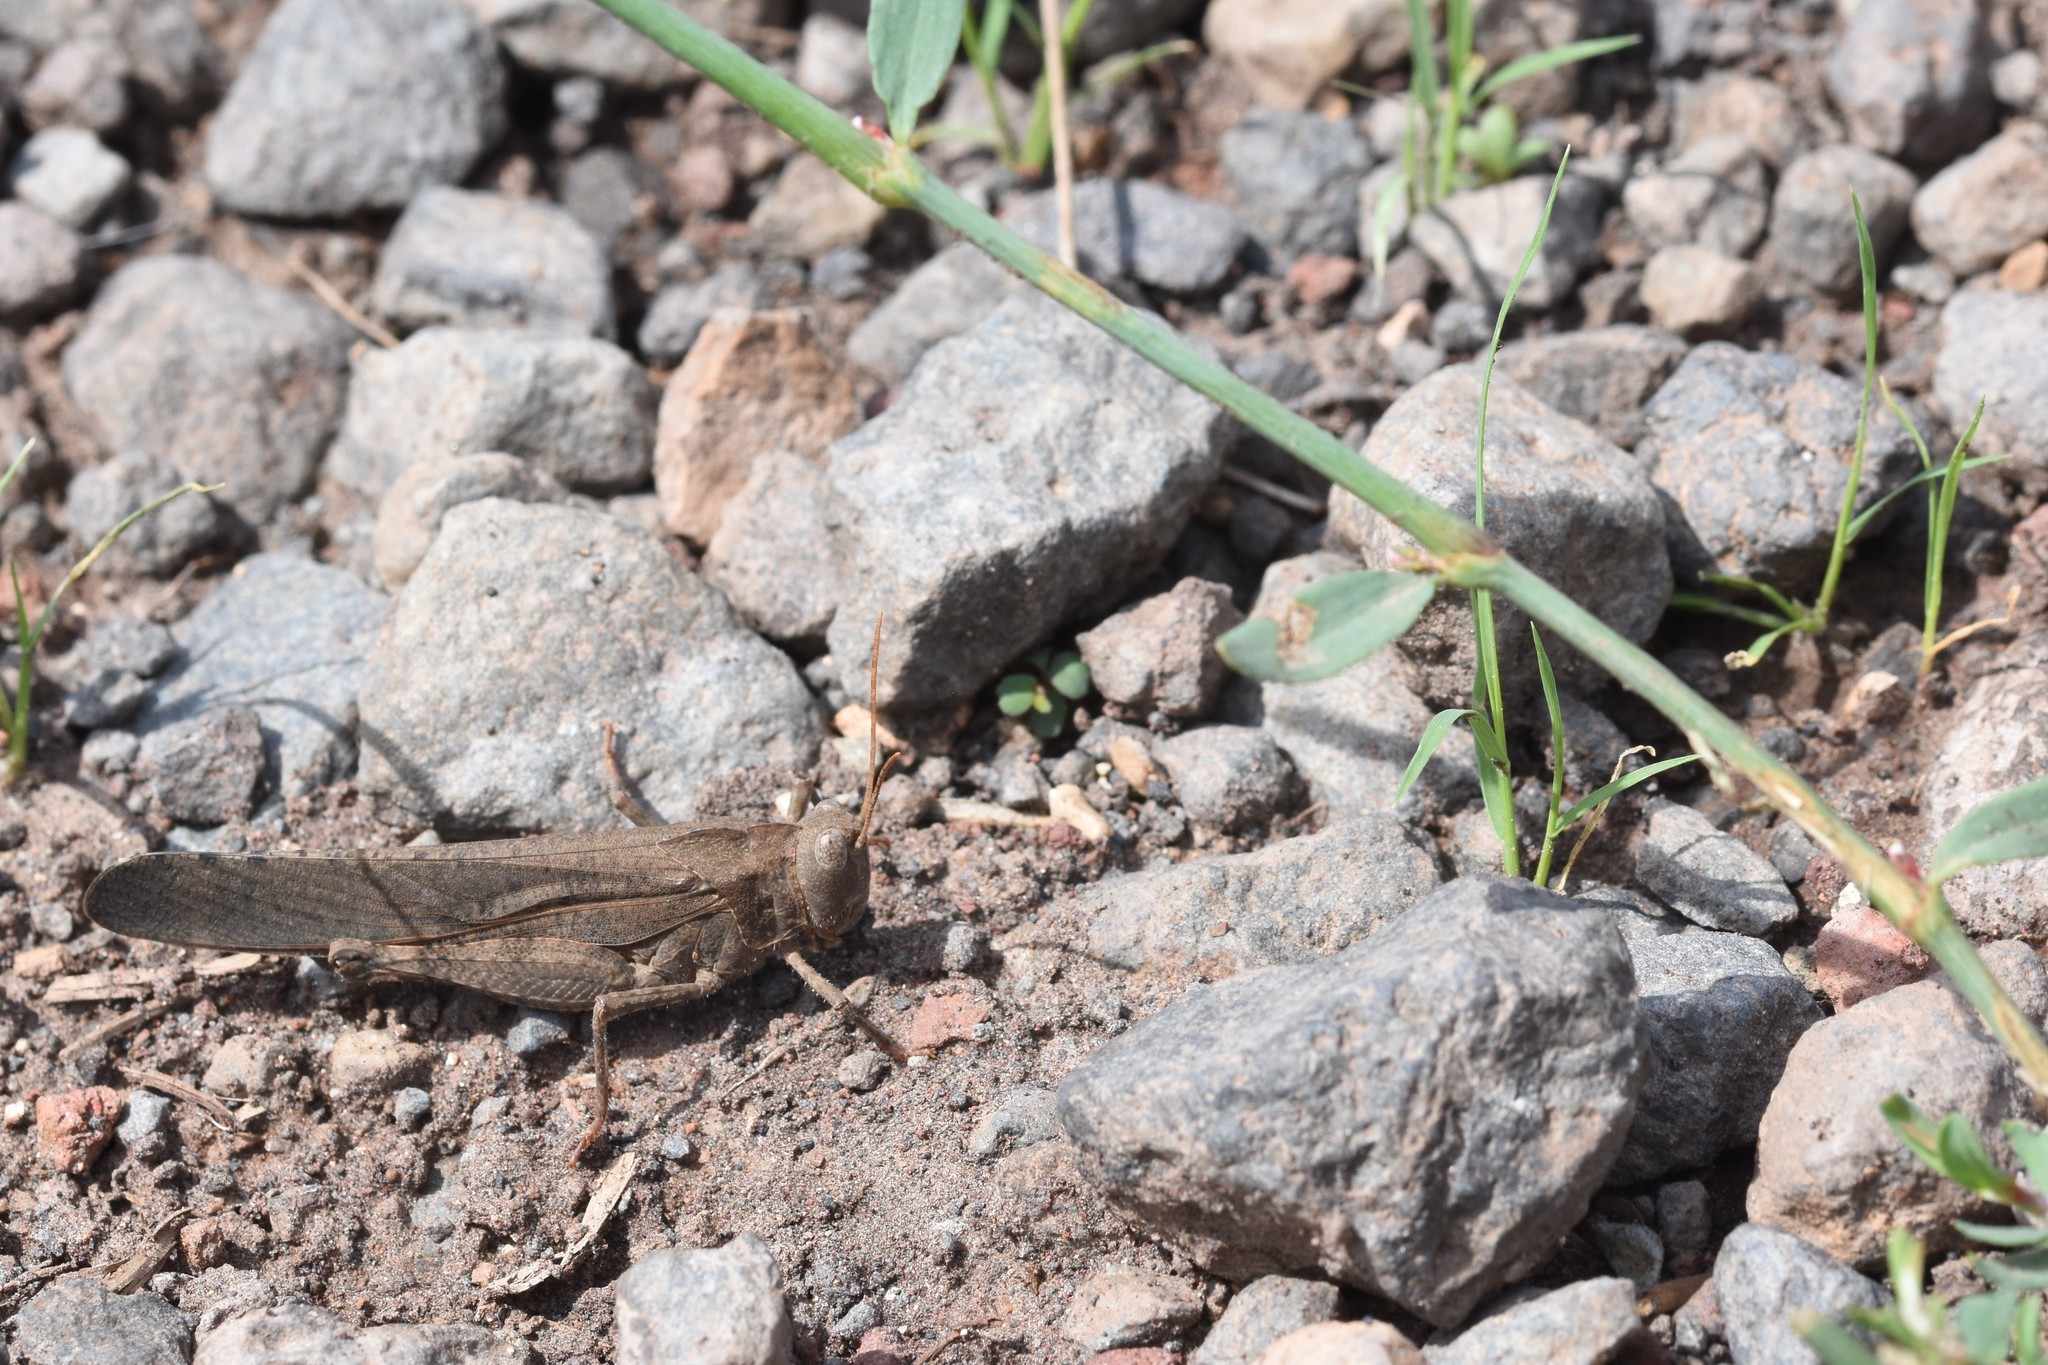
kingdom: Animalia
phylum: Arthropoda
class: Insecta
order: Orthoptera
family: Acrididae
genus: Dissosteira
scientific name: Dissosteira carolina
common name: Carolina grasshopper
